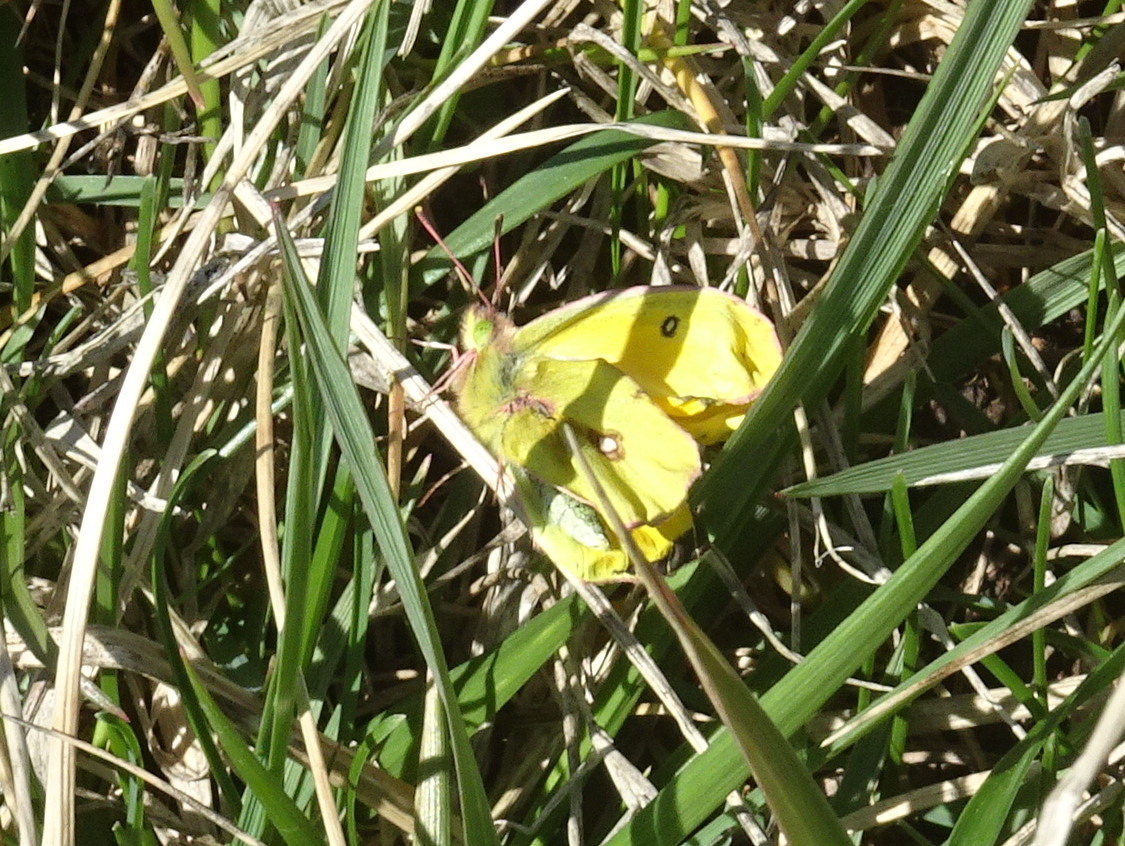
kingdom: Animalia
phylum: Arthropoda
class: Insecta
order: Lepidoptera
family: Pieridae
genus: Colias
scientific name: Colias eurytheme
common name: Alfalfa butterfly
